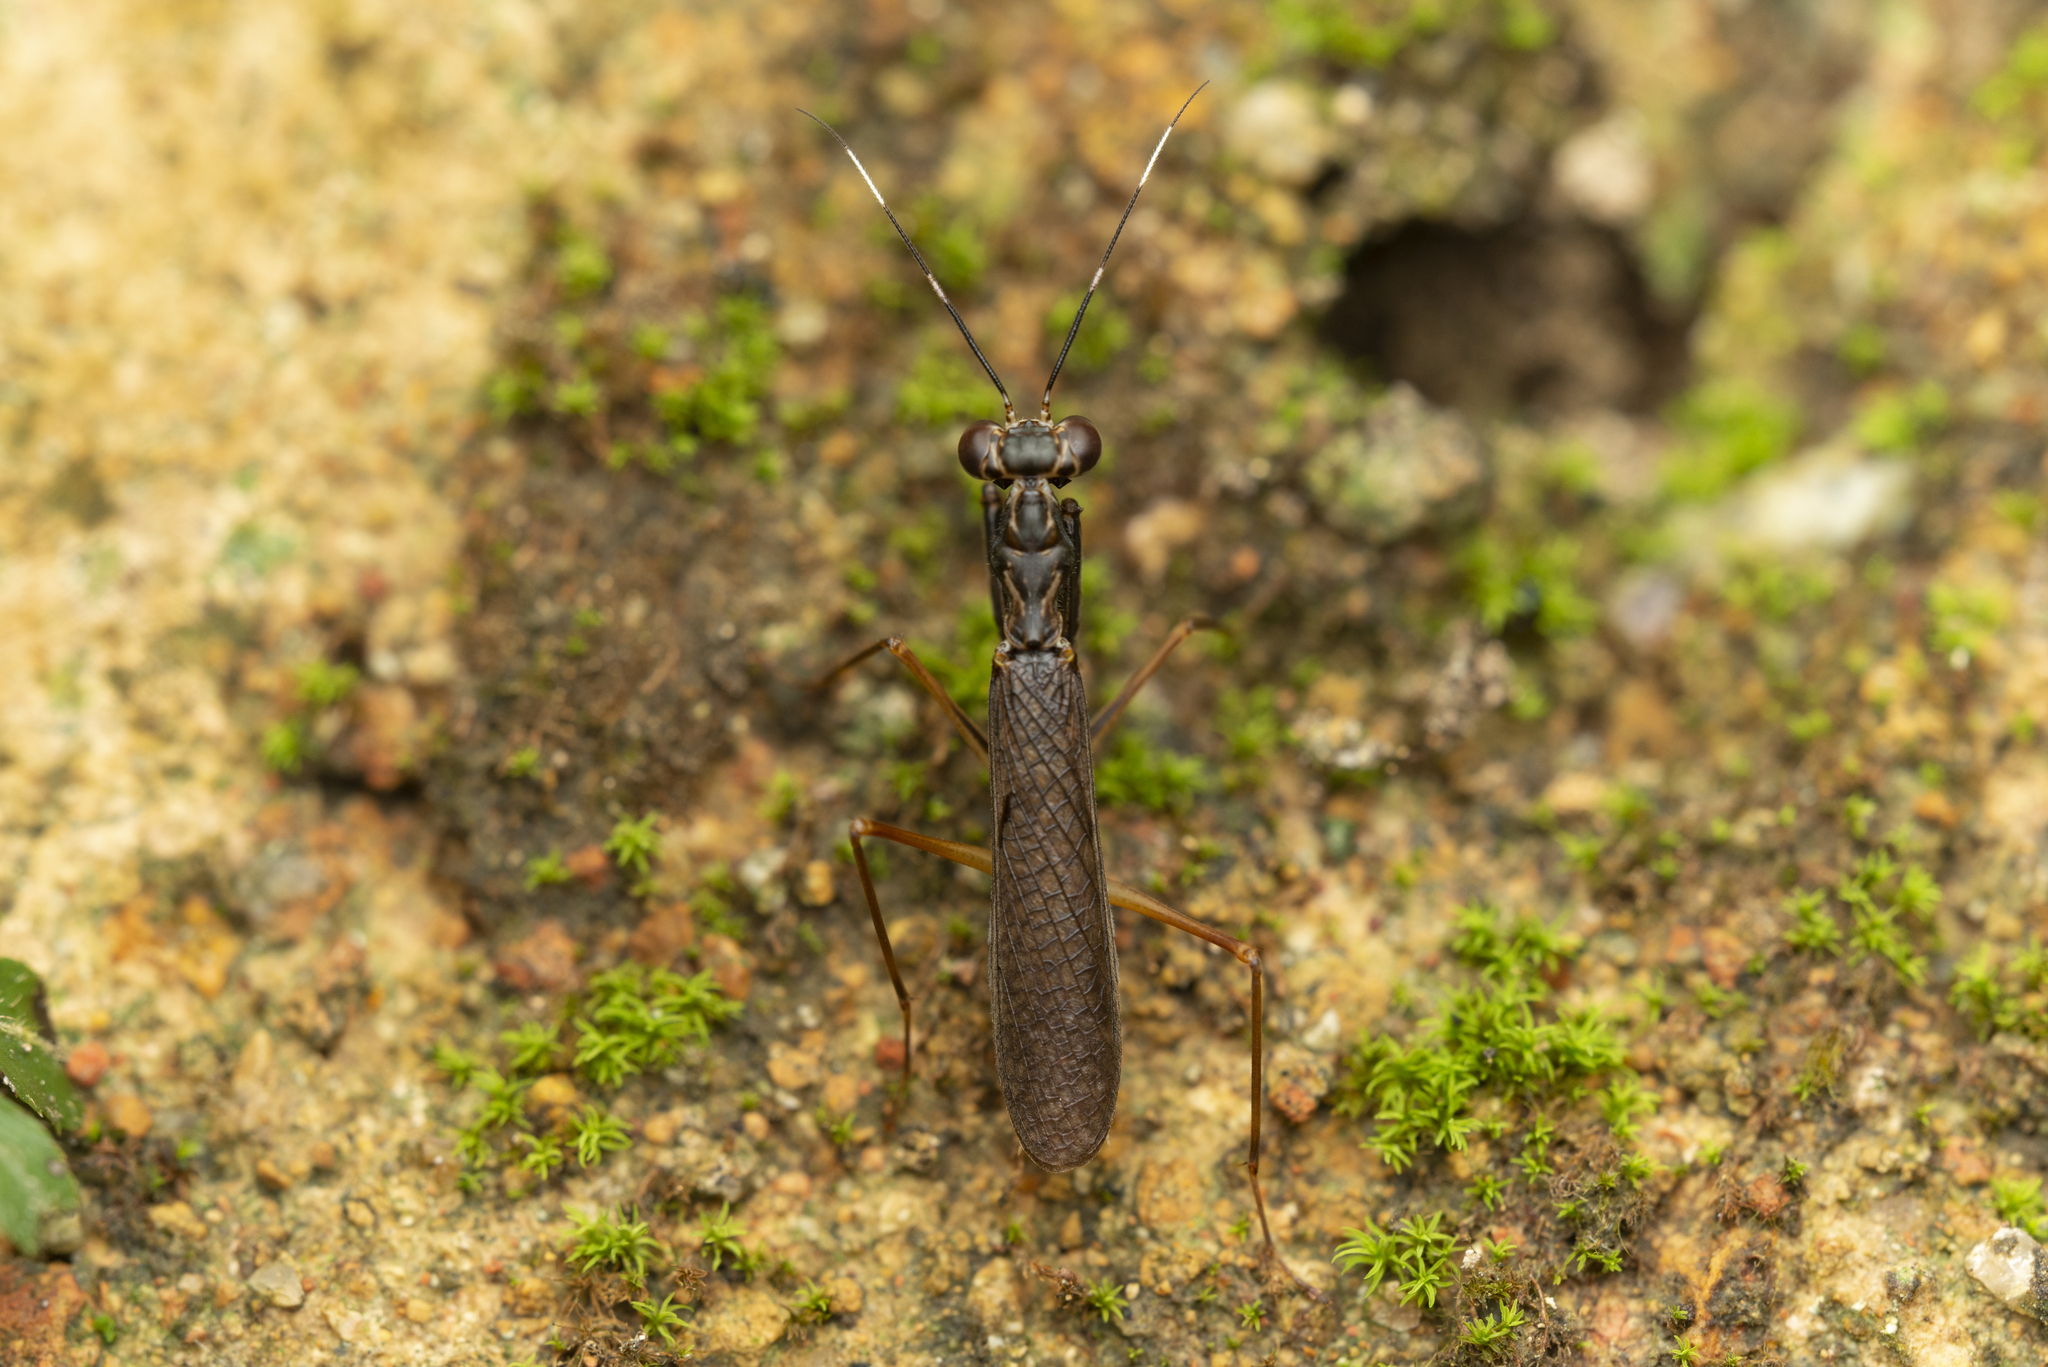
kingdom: Animalia
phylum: Arthropoda
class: Insecta
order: Mantodea
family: Gonypetidae
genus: Spilomantis
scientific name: Spilomantis occipitalis
